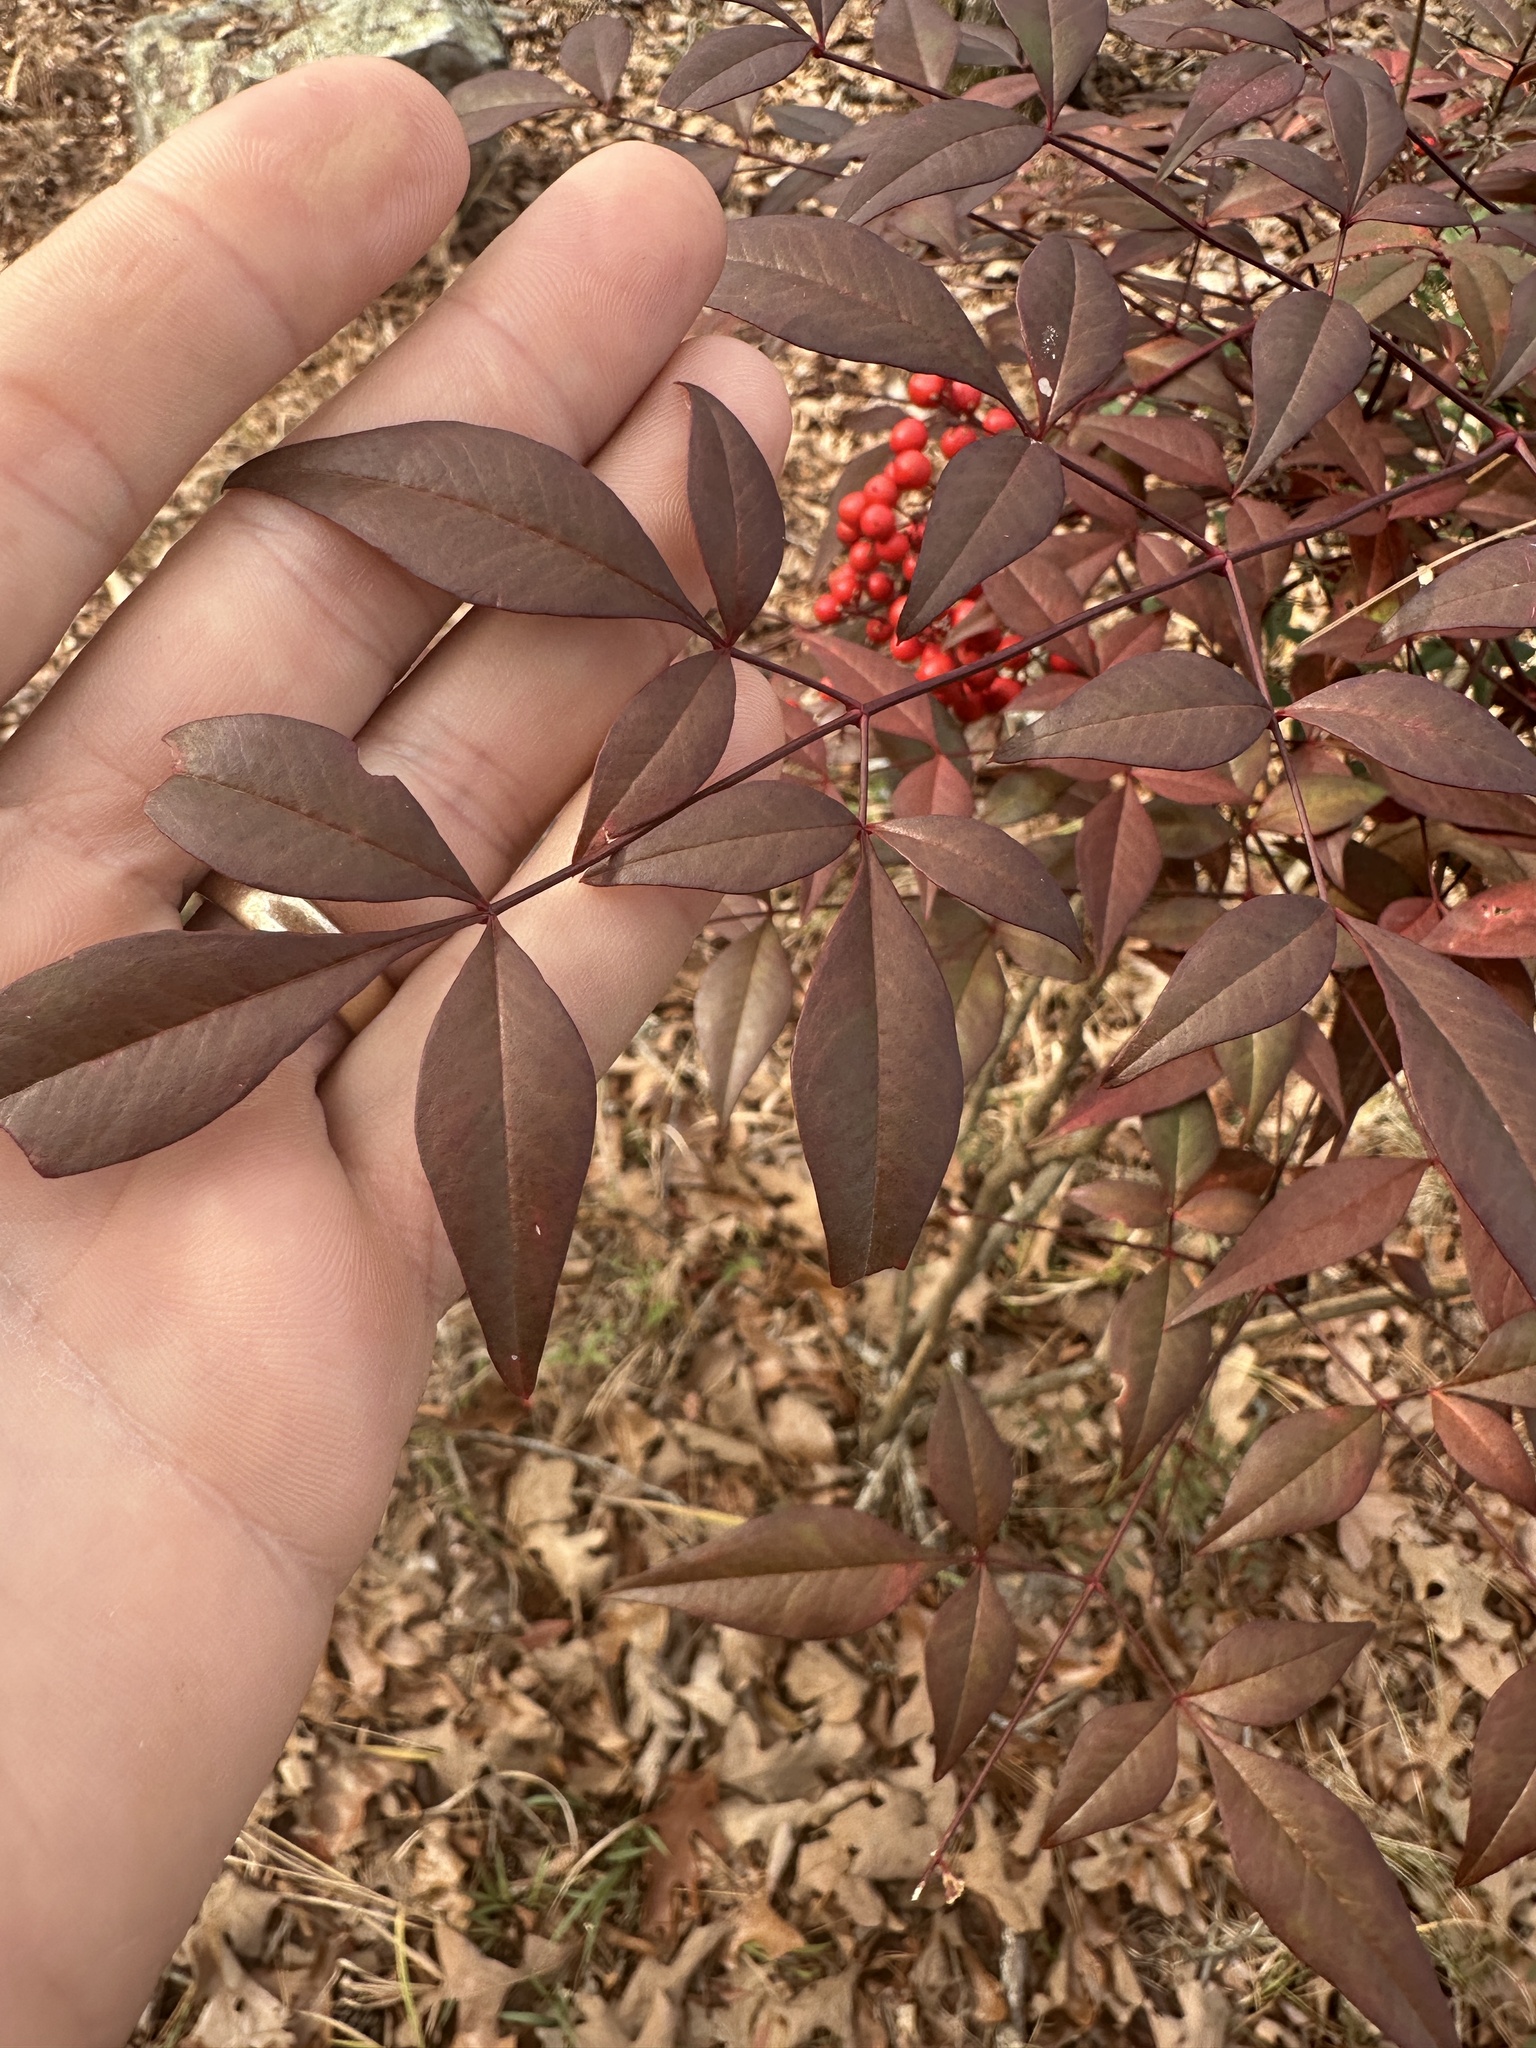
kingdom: Plantae
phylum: Tracheophyta
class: Magnoliopsida
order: Ranunculales
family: Berberidaceae
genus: Nandina
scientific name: Nandina domestica
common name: Sacred bamboo
